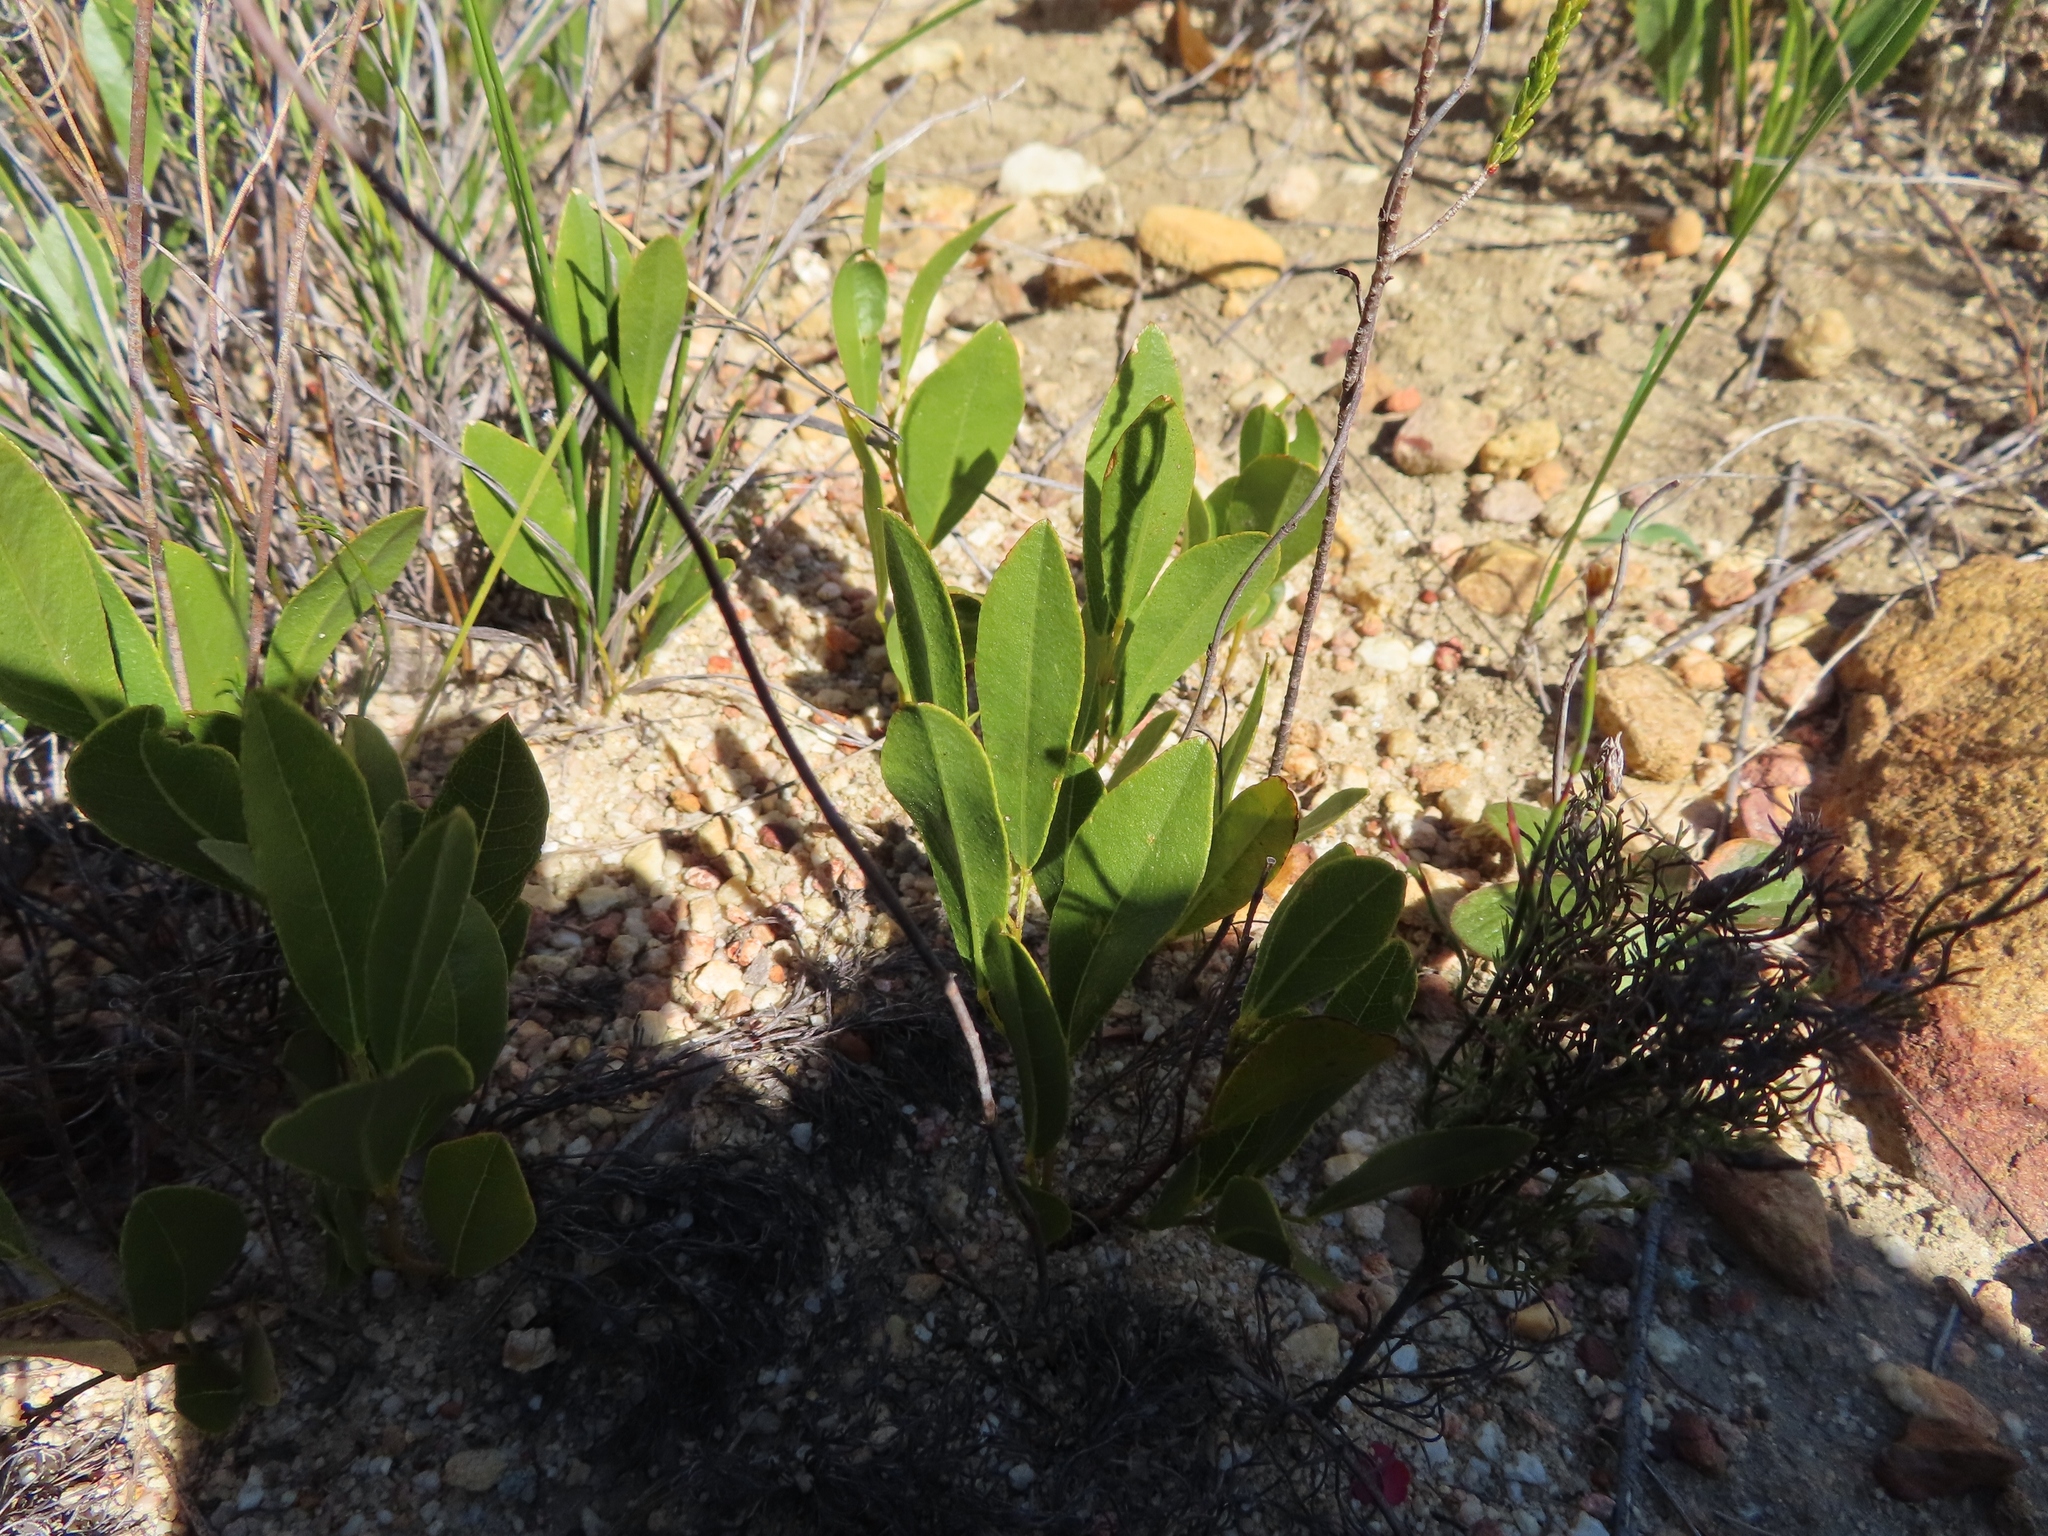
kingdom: Plantae
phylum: Tracheophyta
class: Magnoliopsida
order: Fabales
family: Fabaceae
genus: Psoralea
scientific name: Psoralea rotundifolia
